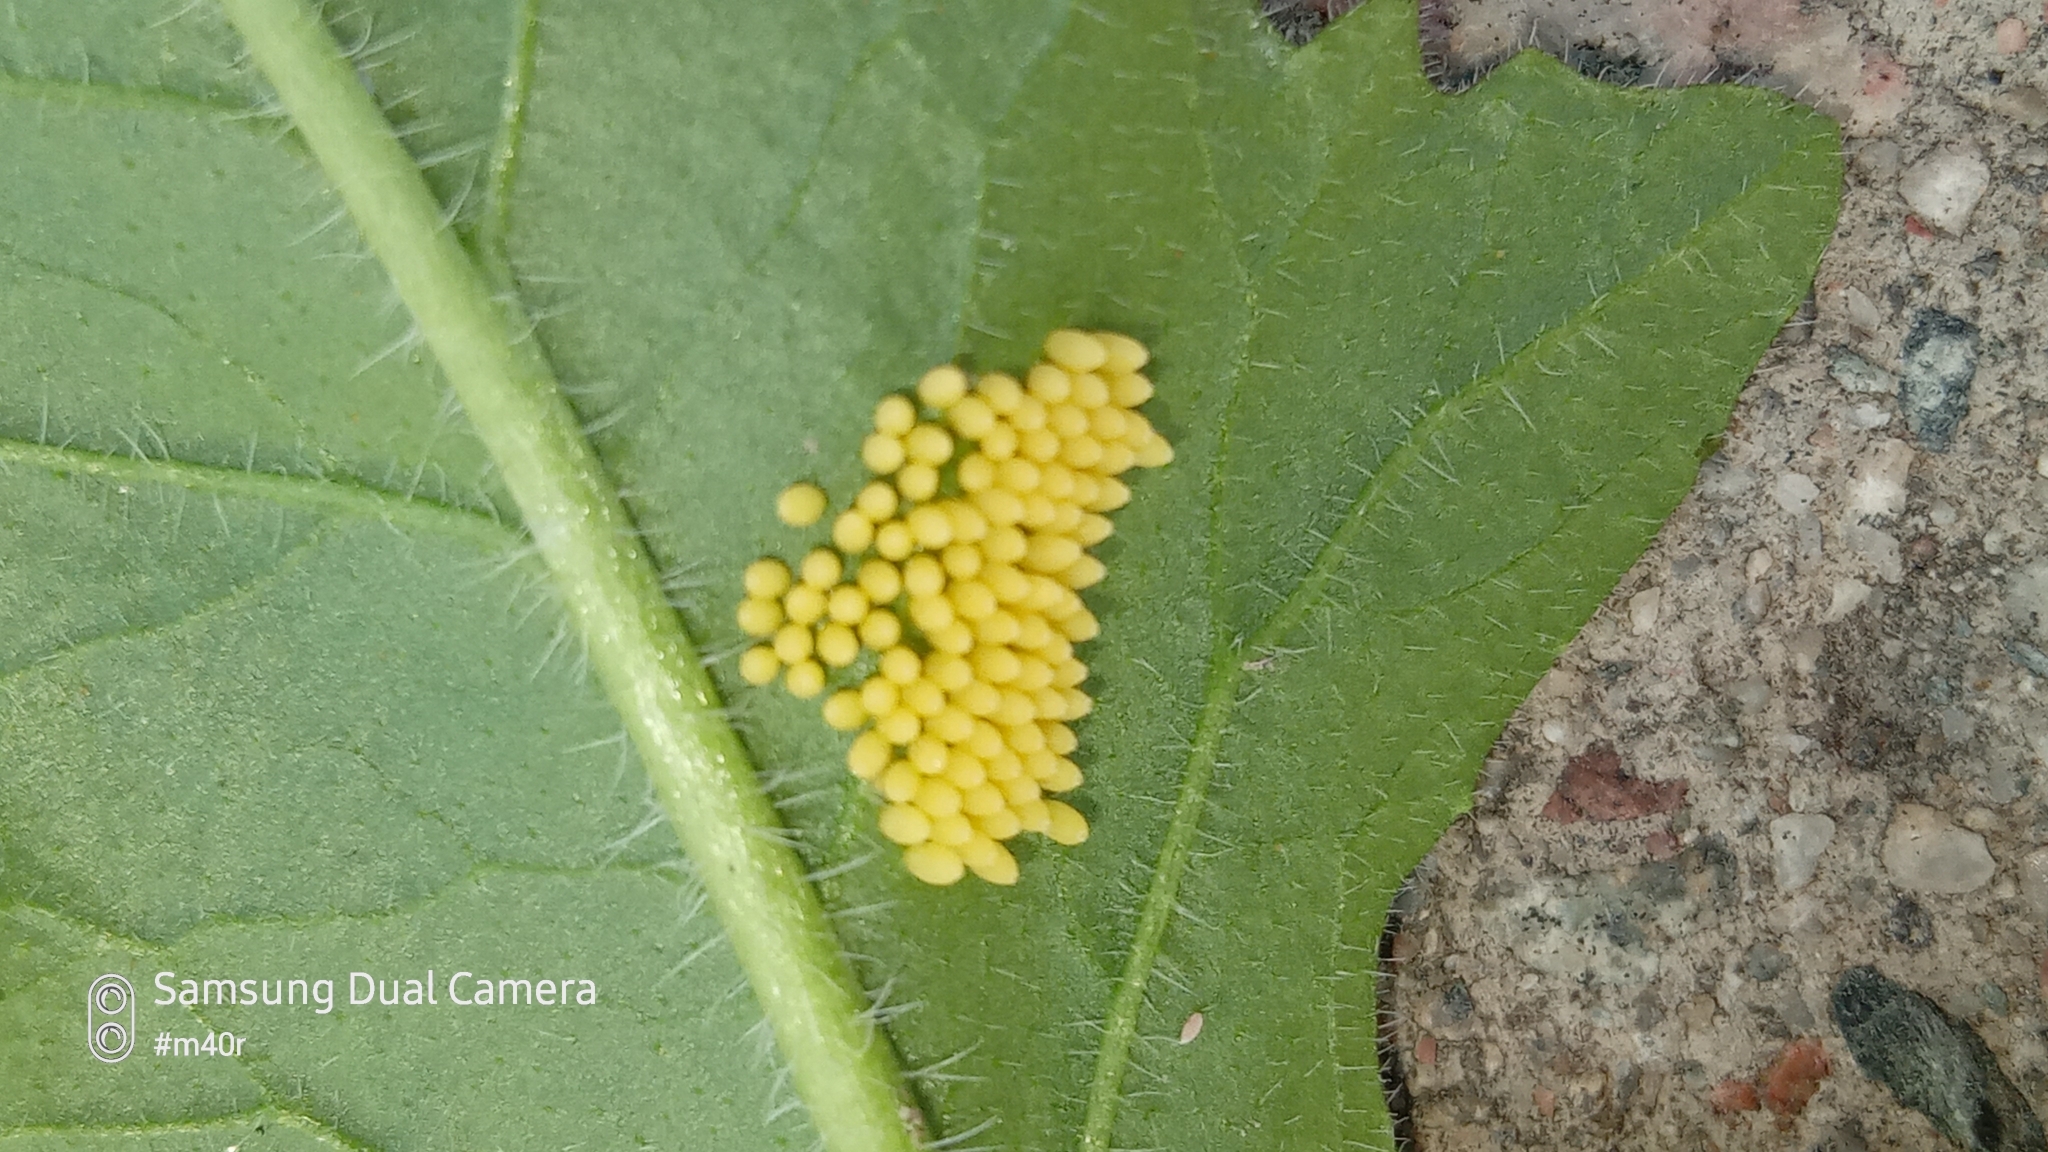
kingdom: Animalia
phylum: Arthropoda
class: Insecta
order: Lepidoptera
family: Pieridae
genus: Pieris
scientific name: Pieris brassicae
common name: Large white
